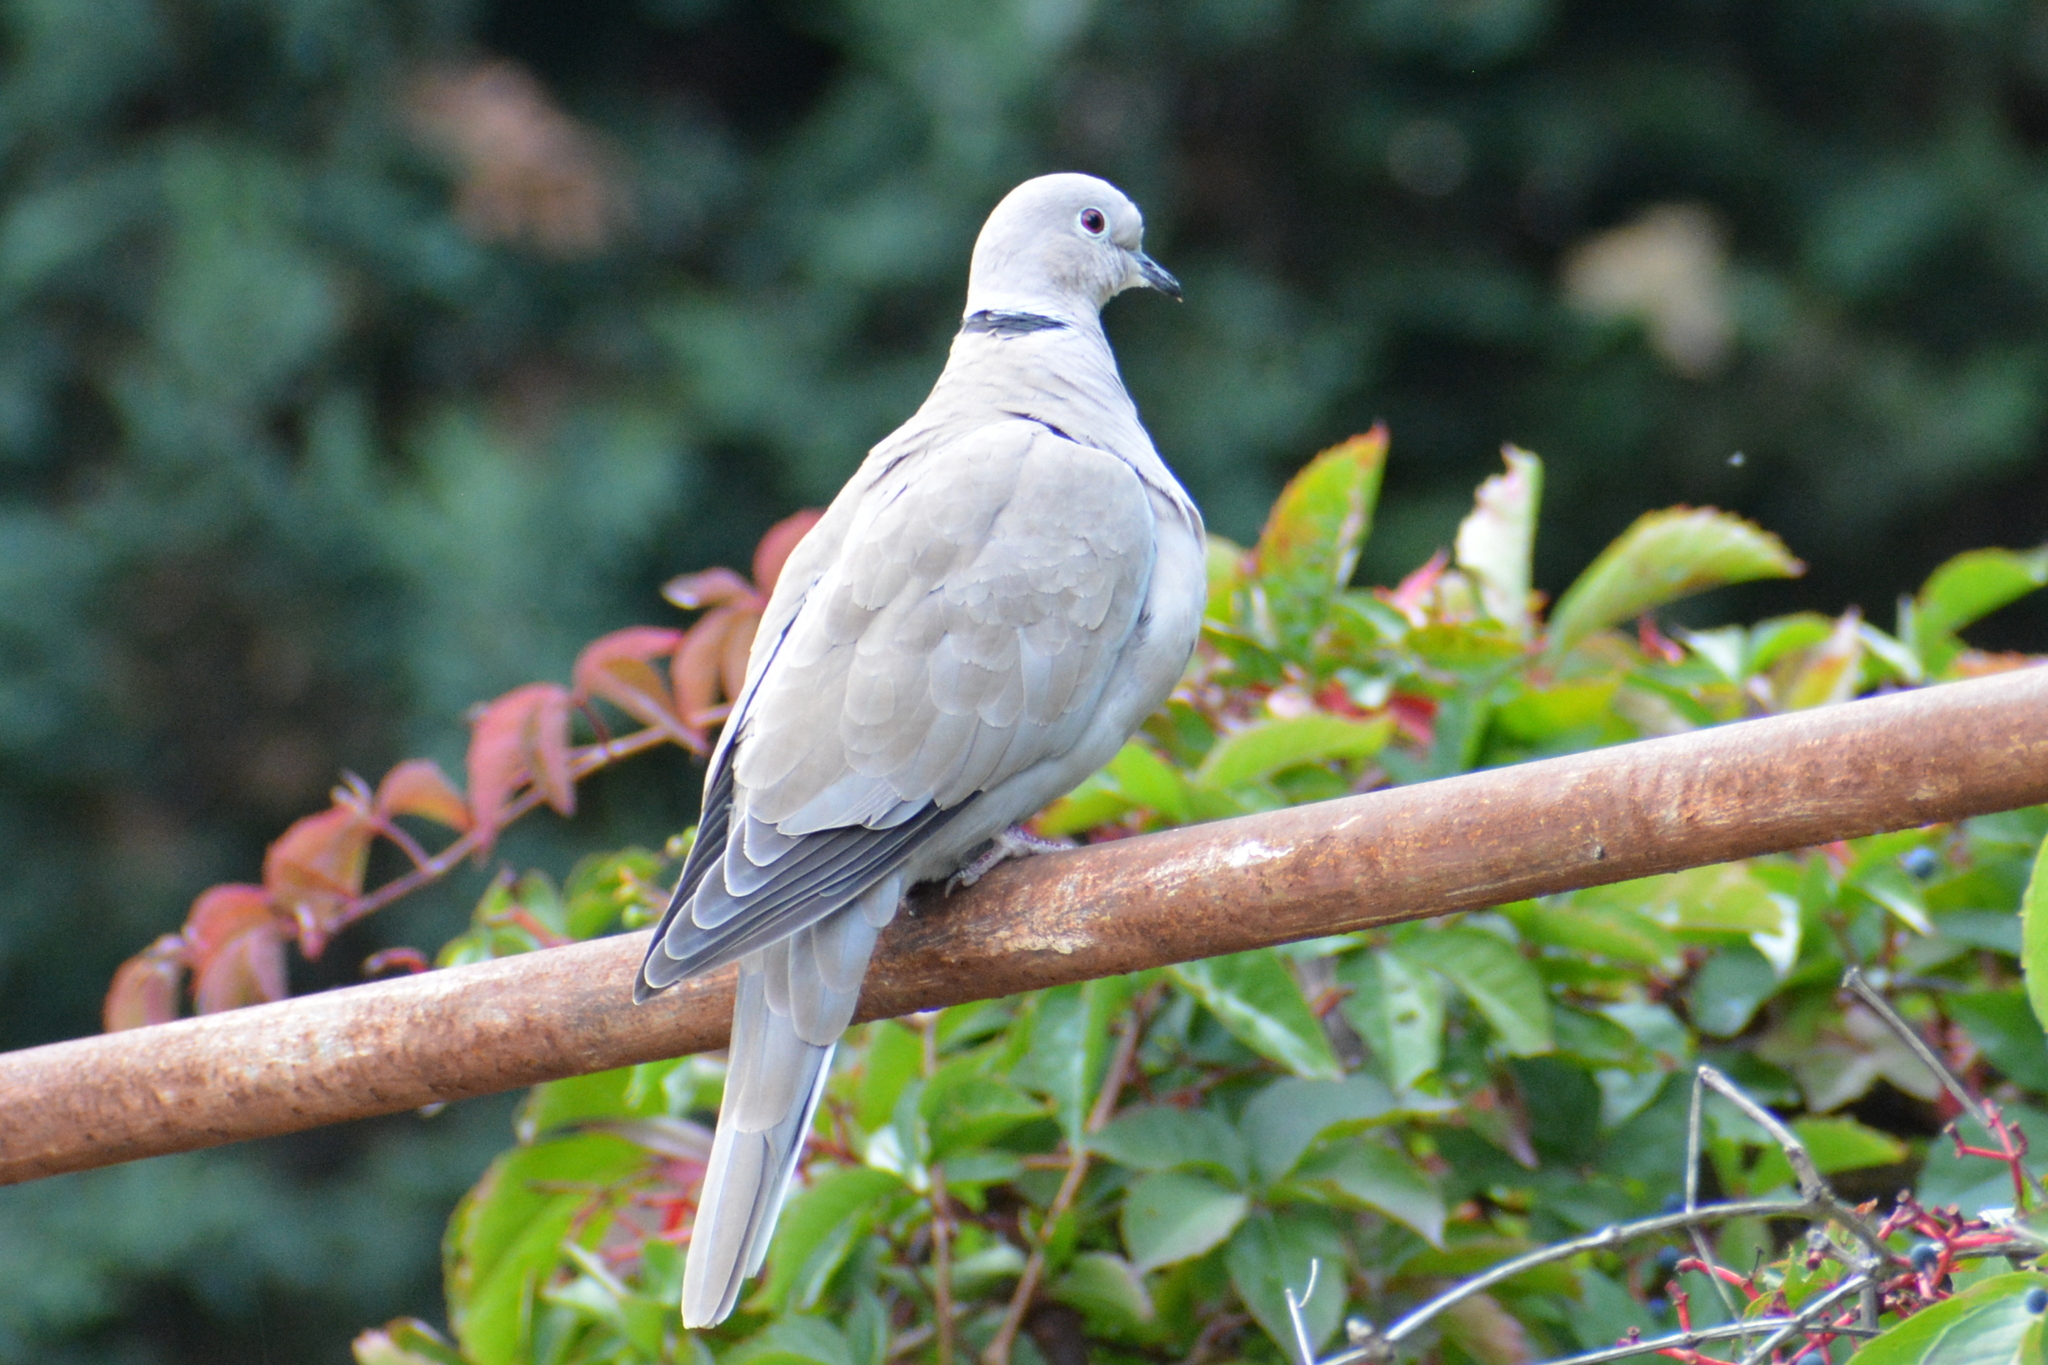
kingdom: Animalia
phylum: Chordata
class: Aves
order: Columbiformes
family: Columbidae
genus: Streptopelia
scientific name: Streptopelia decaocto
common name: Eurasian collared dove
